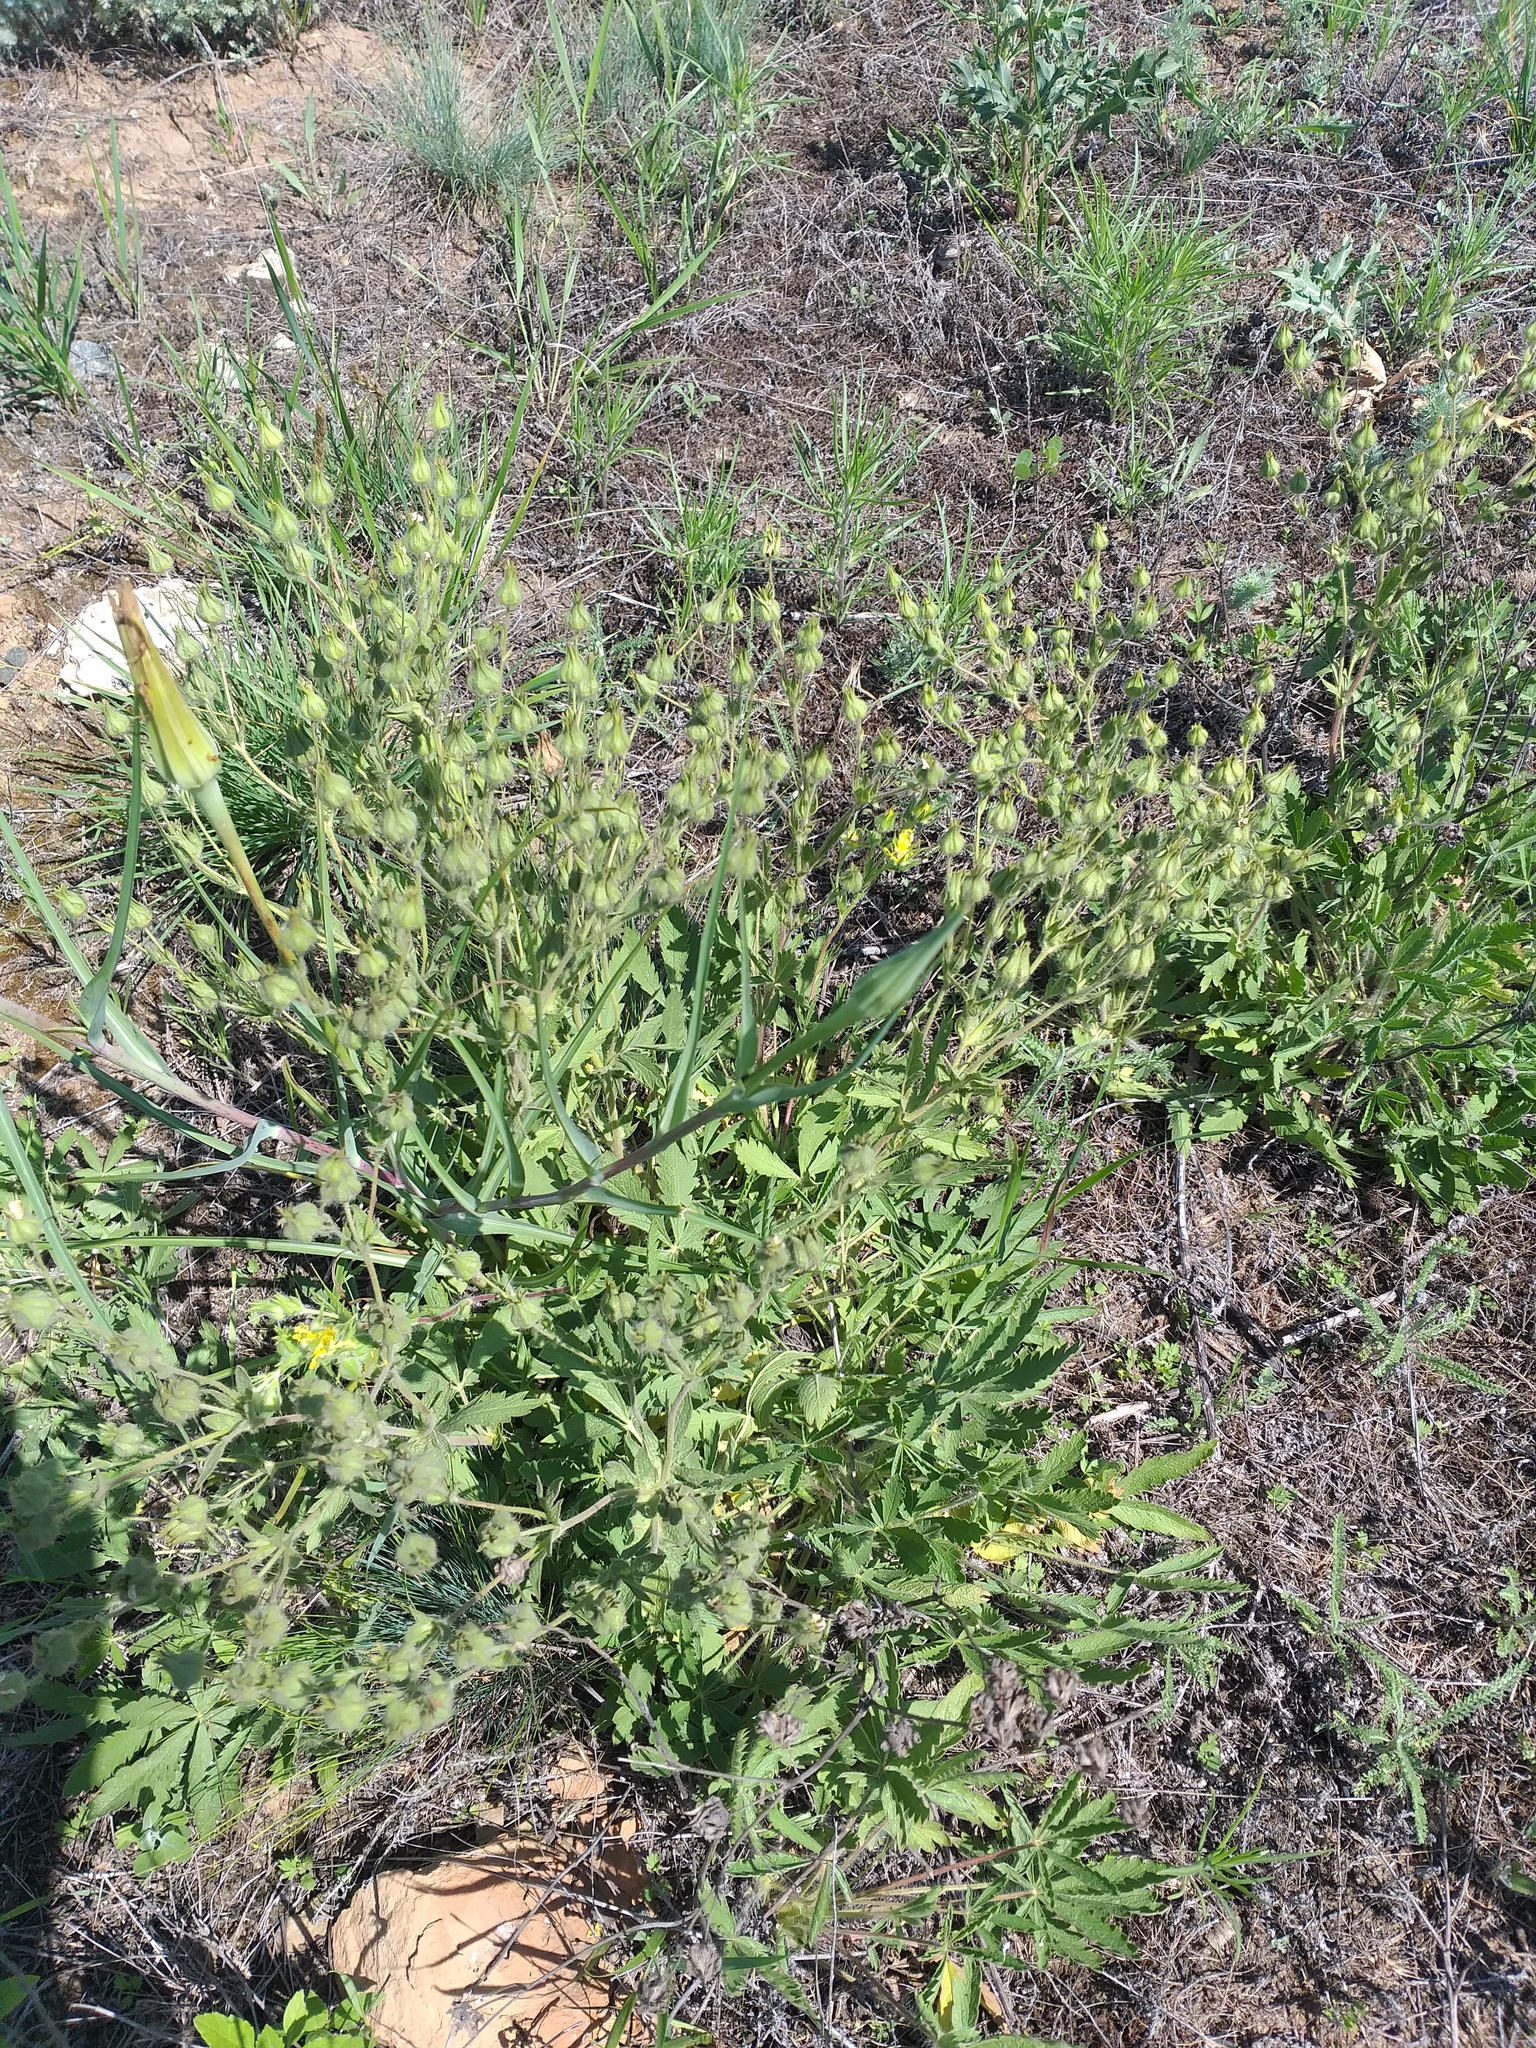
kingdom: Plantae
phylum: Tracheophyta
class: Magnoliopsida
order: Rosales
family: Rosaceae
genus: Potentilla
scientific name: Potentilla astracanica
